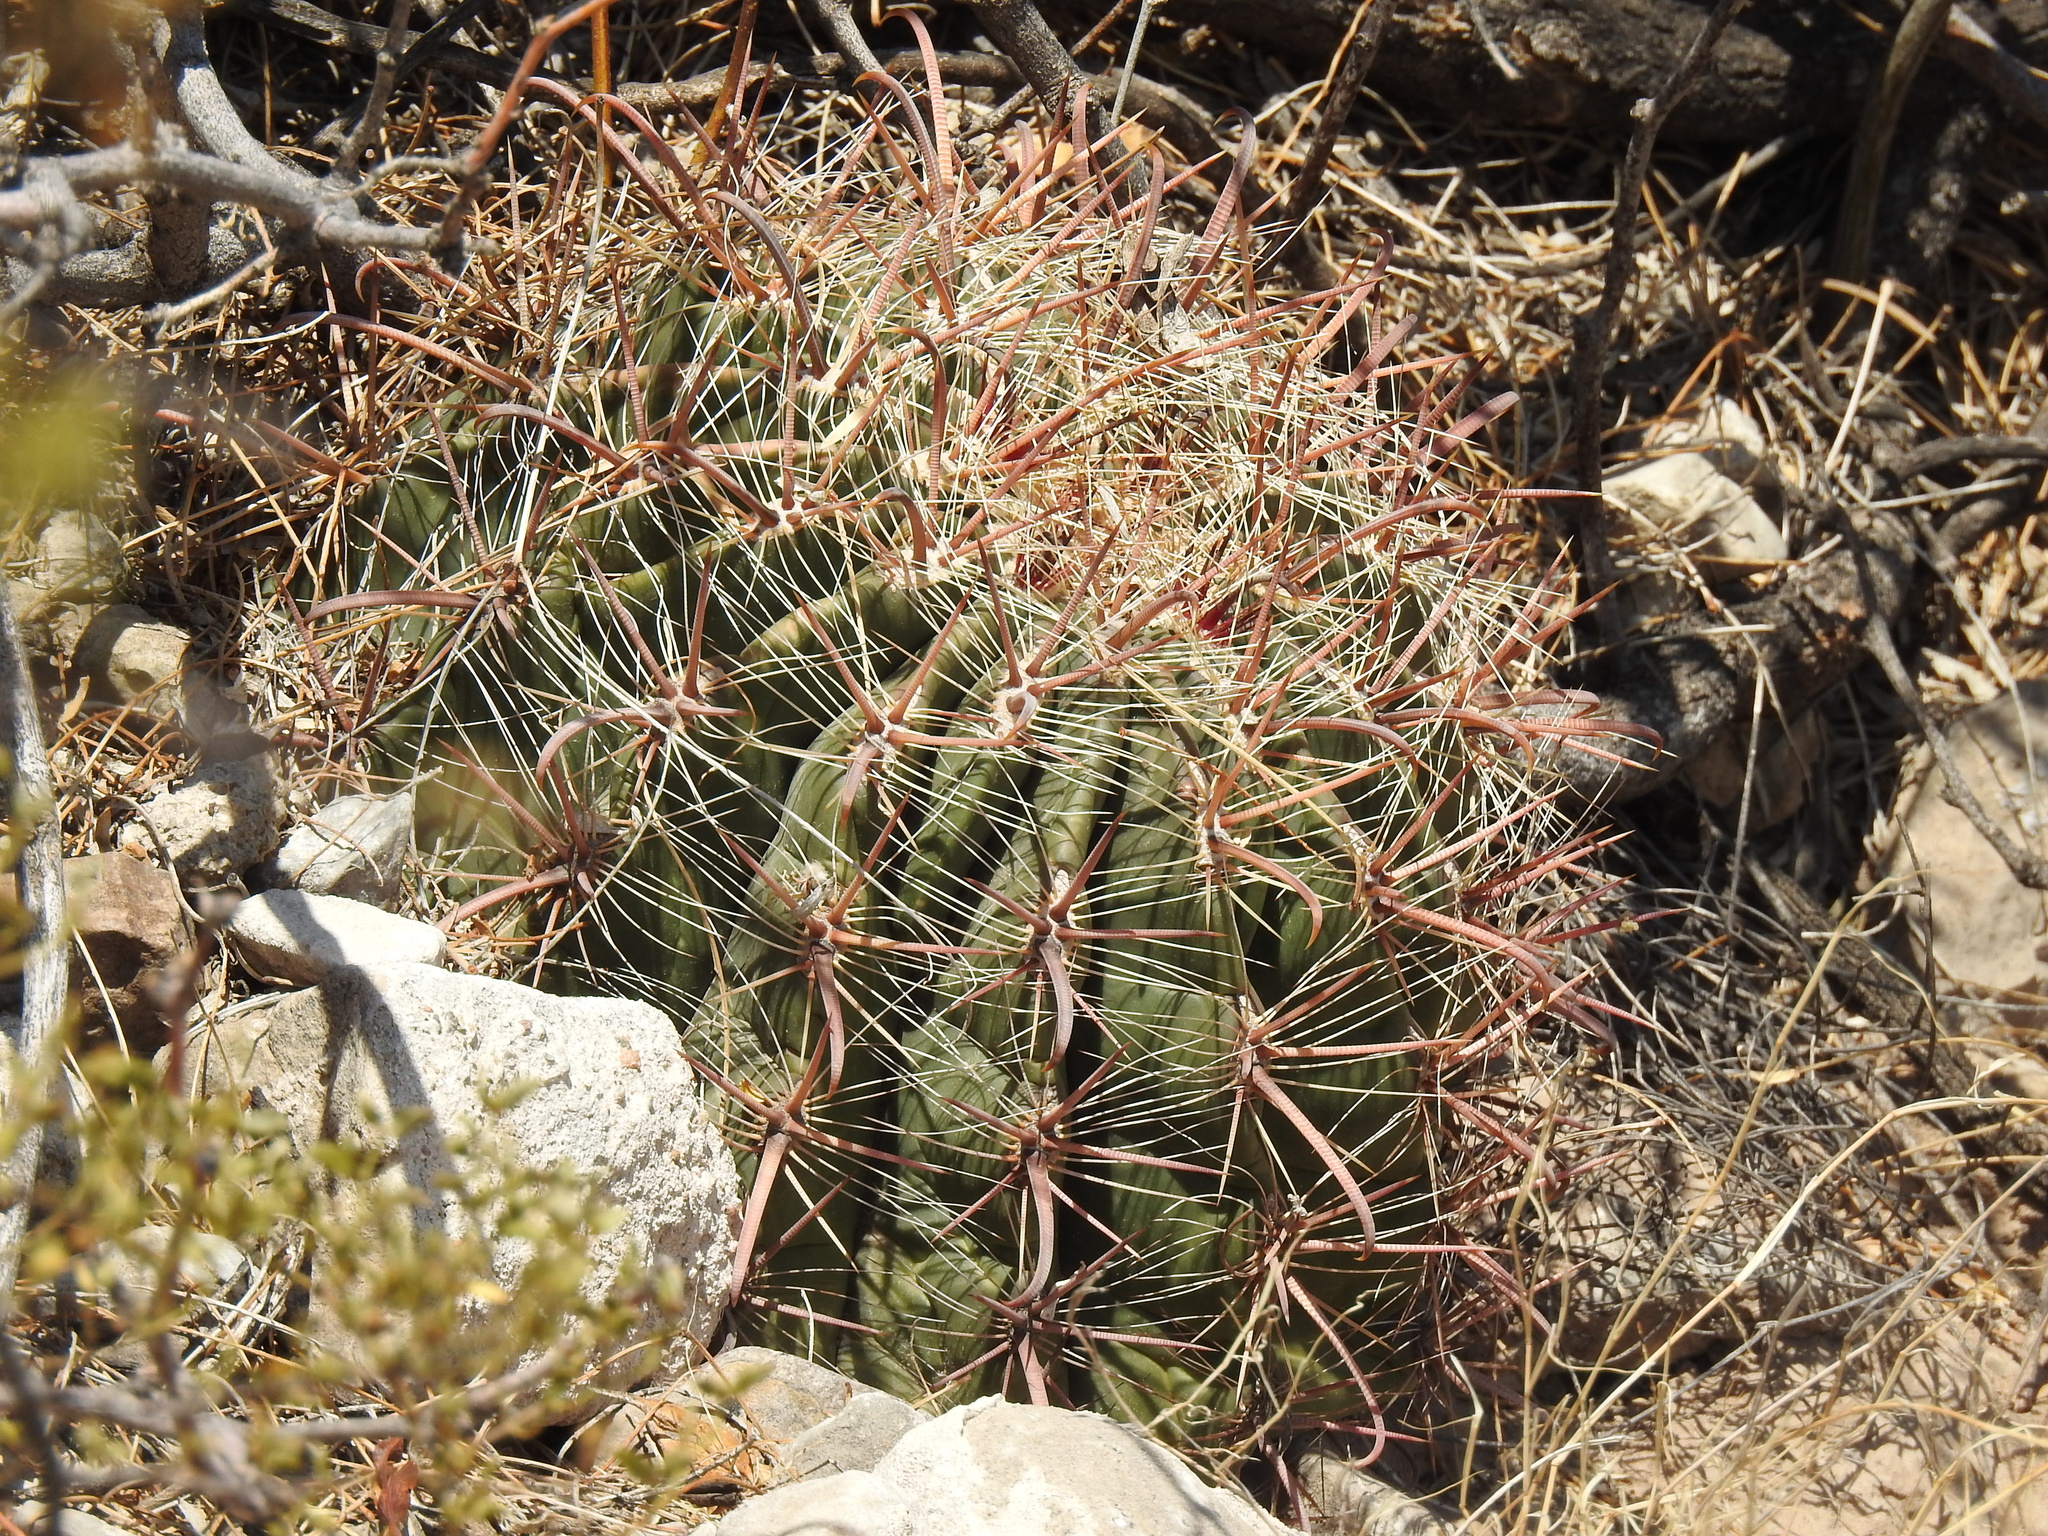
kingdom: Plantae
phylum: Tracheophyta
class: Magnoliopsida
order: Caryophyllales
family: Cactaceae
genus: Ferocactus
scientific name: Ferocactus wislizeni
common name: Candy barrel cactus
